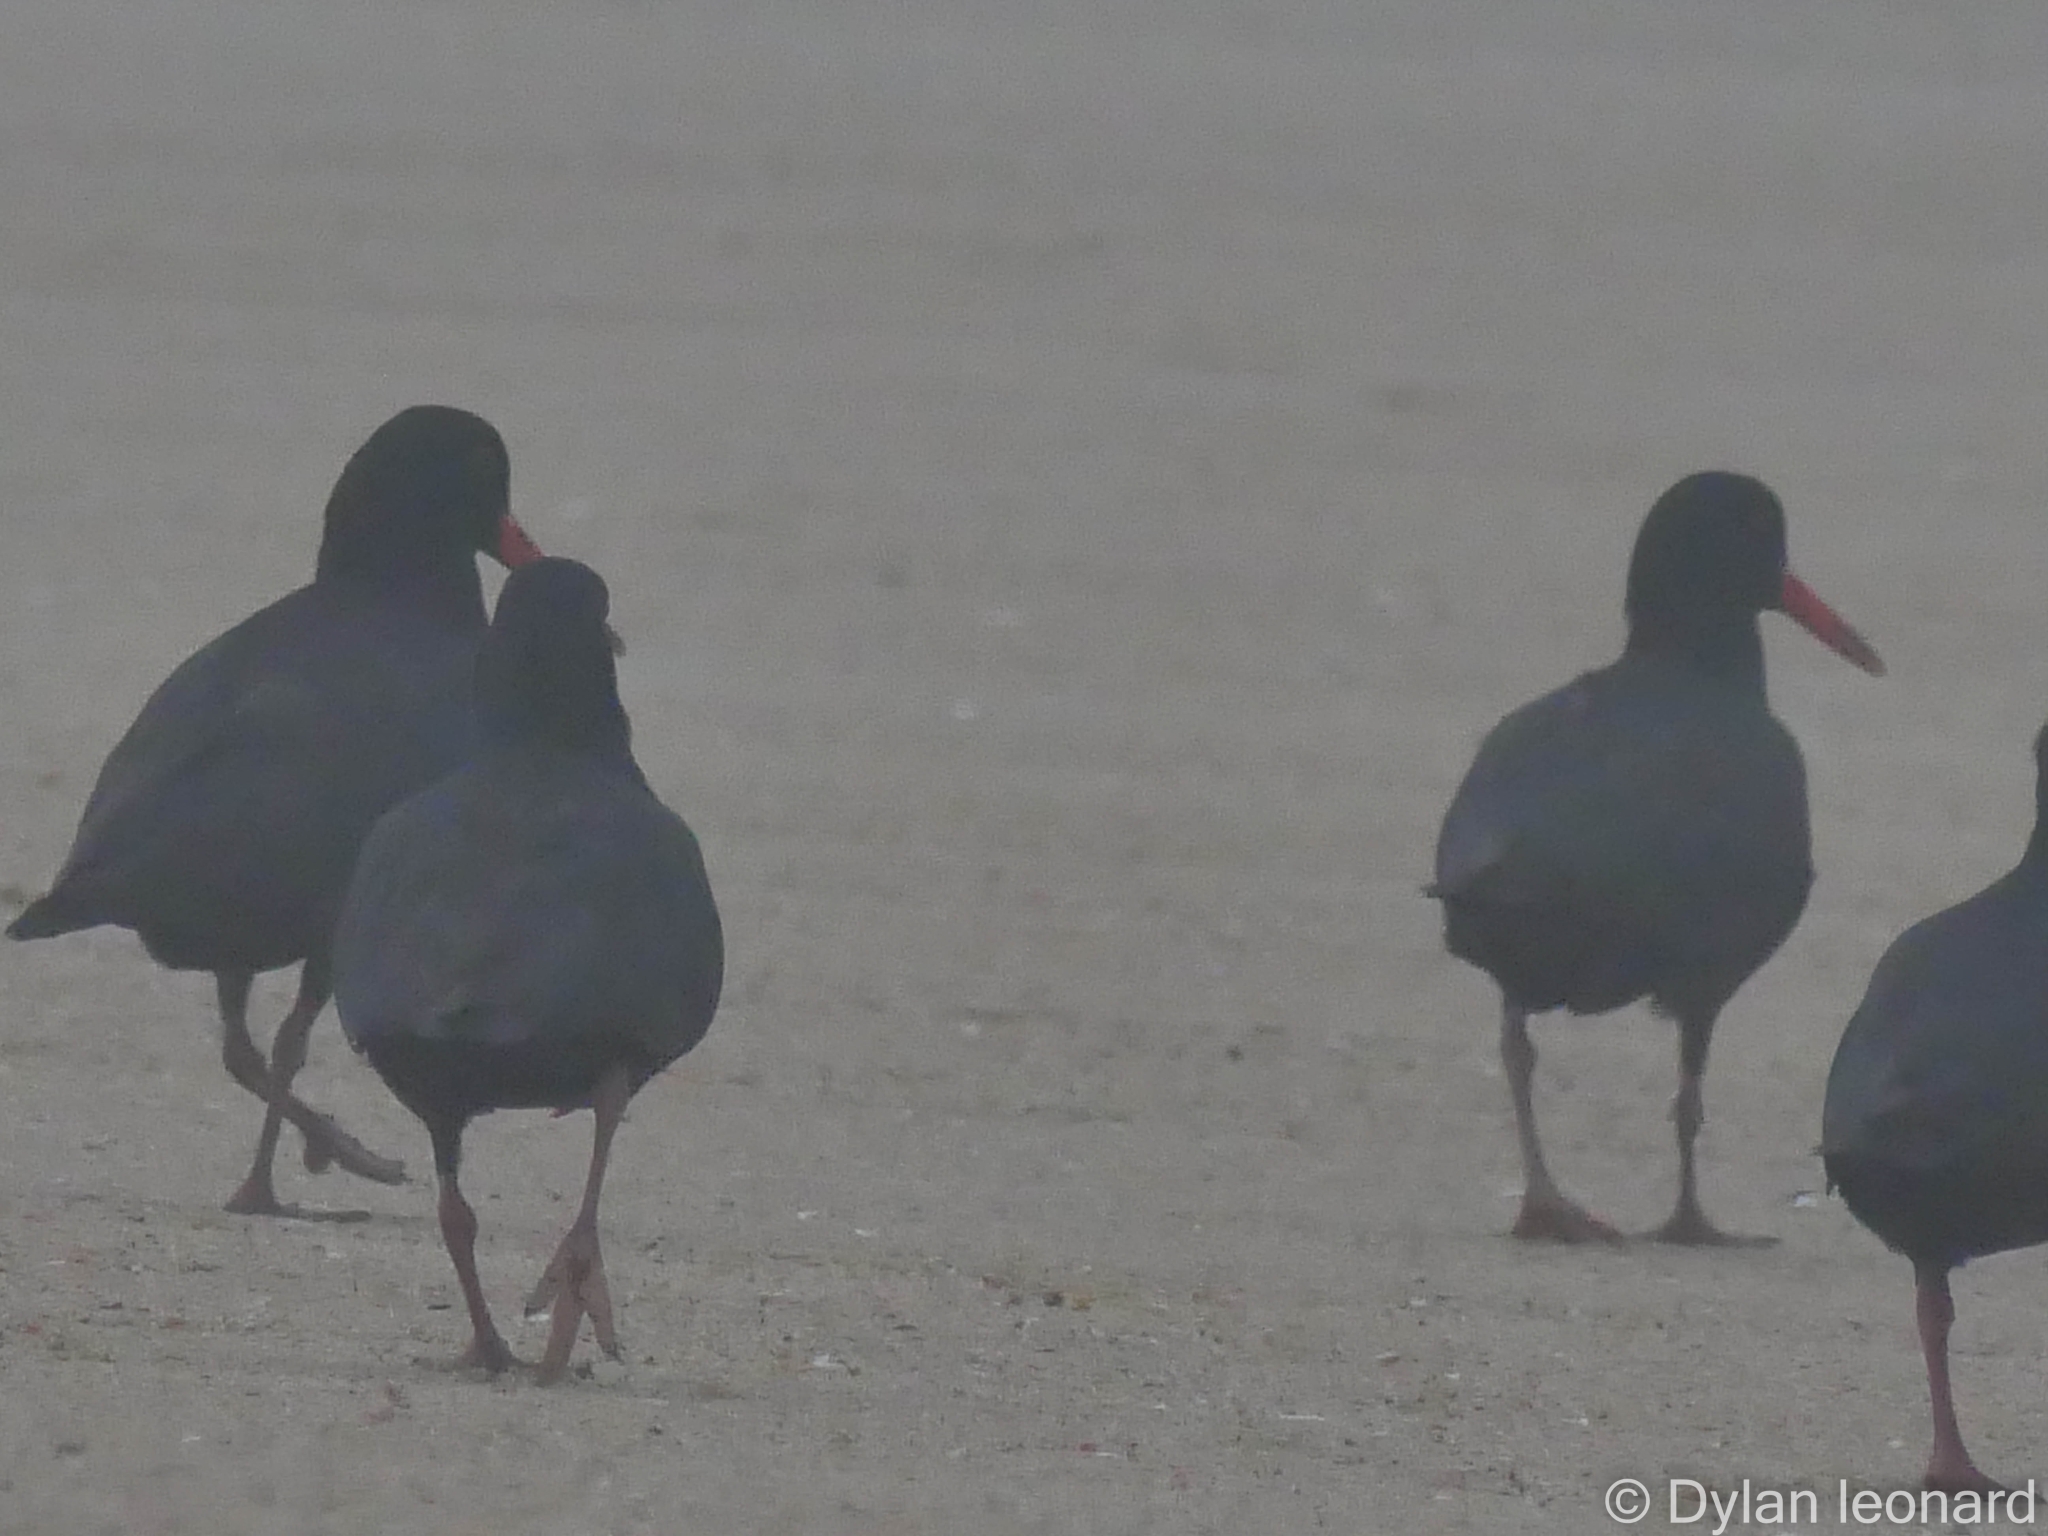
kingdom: Animalia
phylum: Chordata
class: Aves
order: Charadriiformes
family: Haematopodidae
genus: Haematopus
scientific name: Haematopus moquini
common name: African oystercatcher
